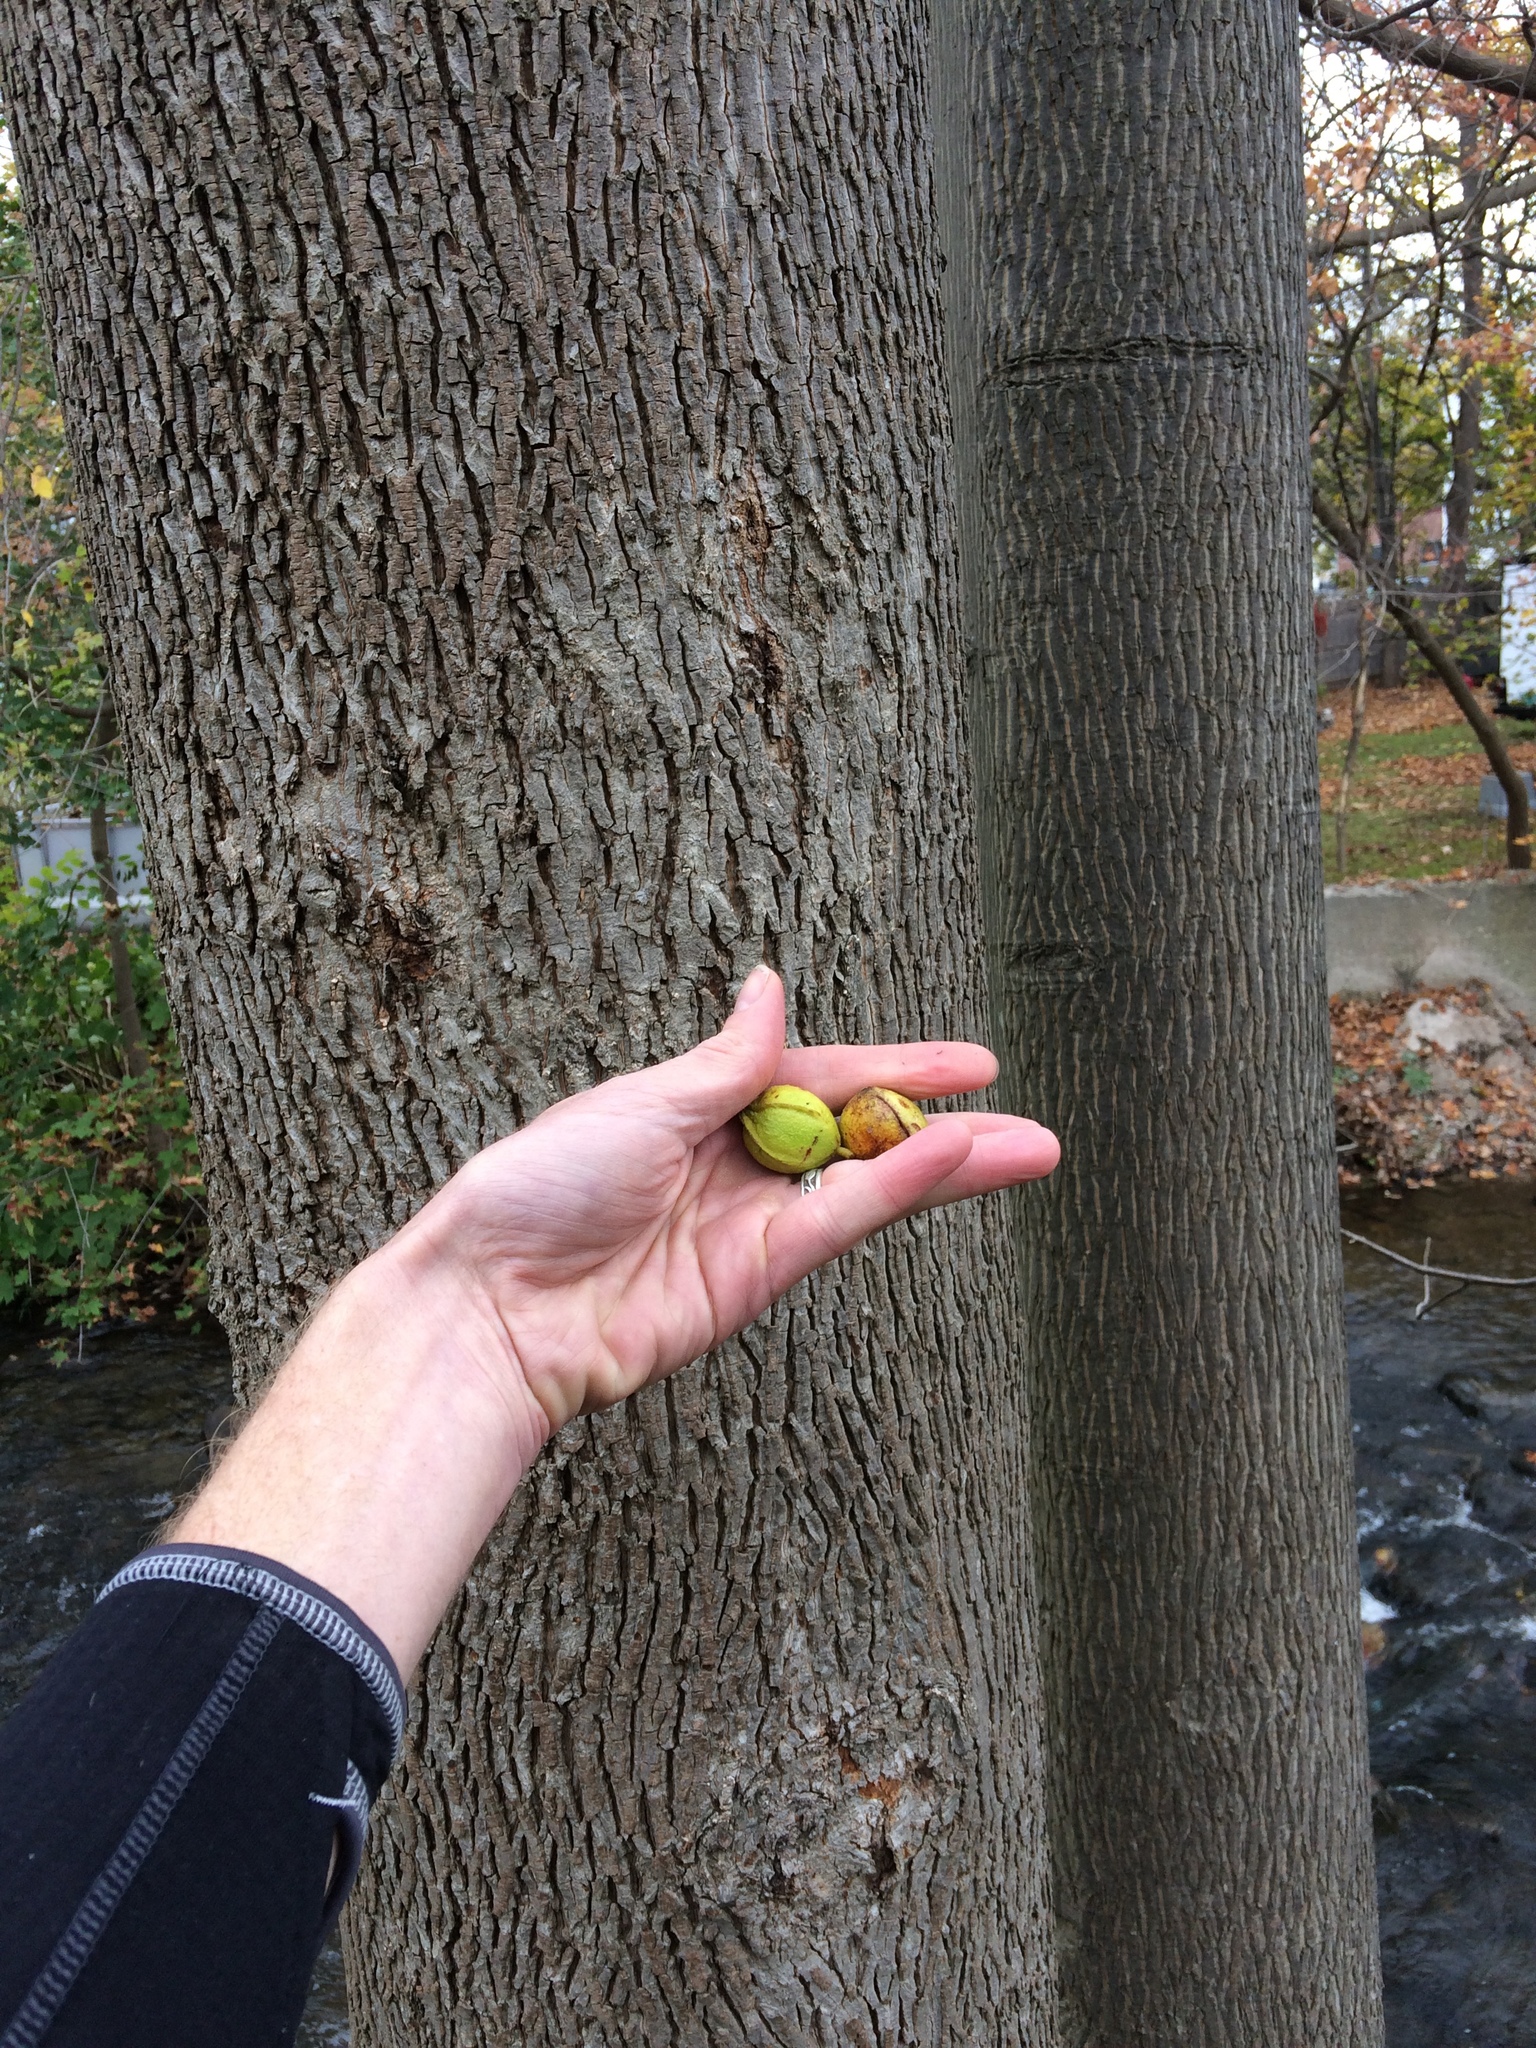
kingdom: Plantae
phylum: Tracheophyta
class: Magnoliopsida
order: Fagales
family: Juglandaceae
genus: Carya
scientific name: Carya cordiformis
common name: Bitternut hickory
